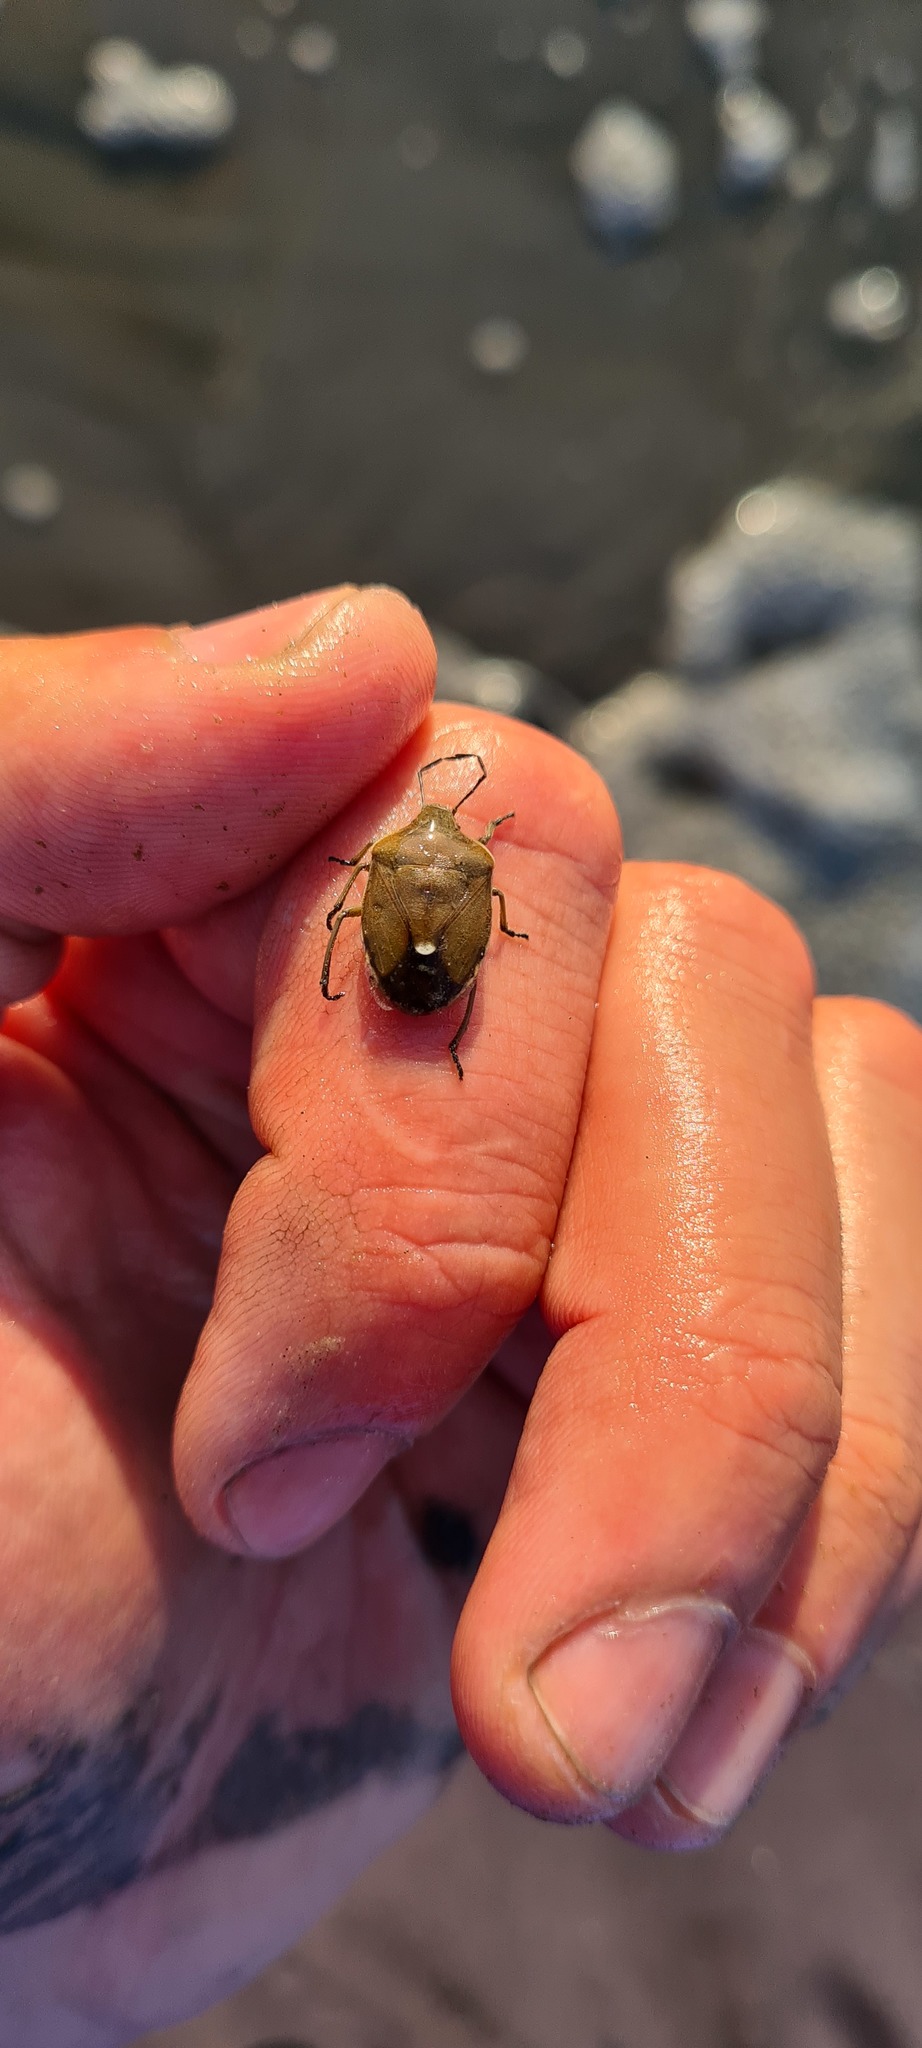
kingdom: Animalia
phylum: Arthropoda
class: Insecta
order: Hemiptera
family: Pentatomidae
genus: Chlorochroa
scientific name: Chlorochroa pinicola
